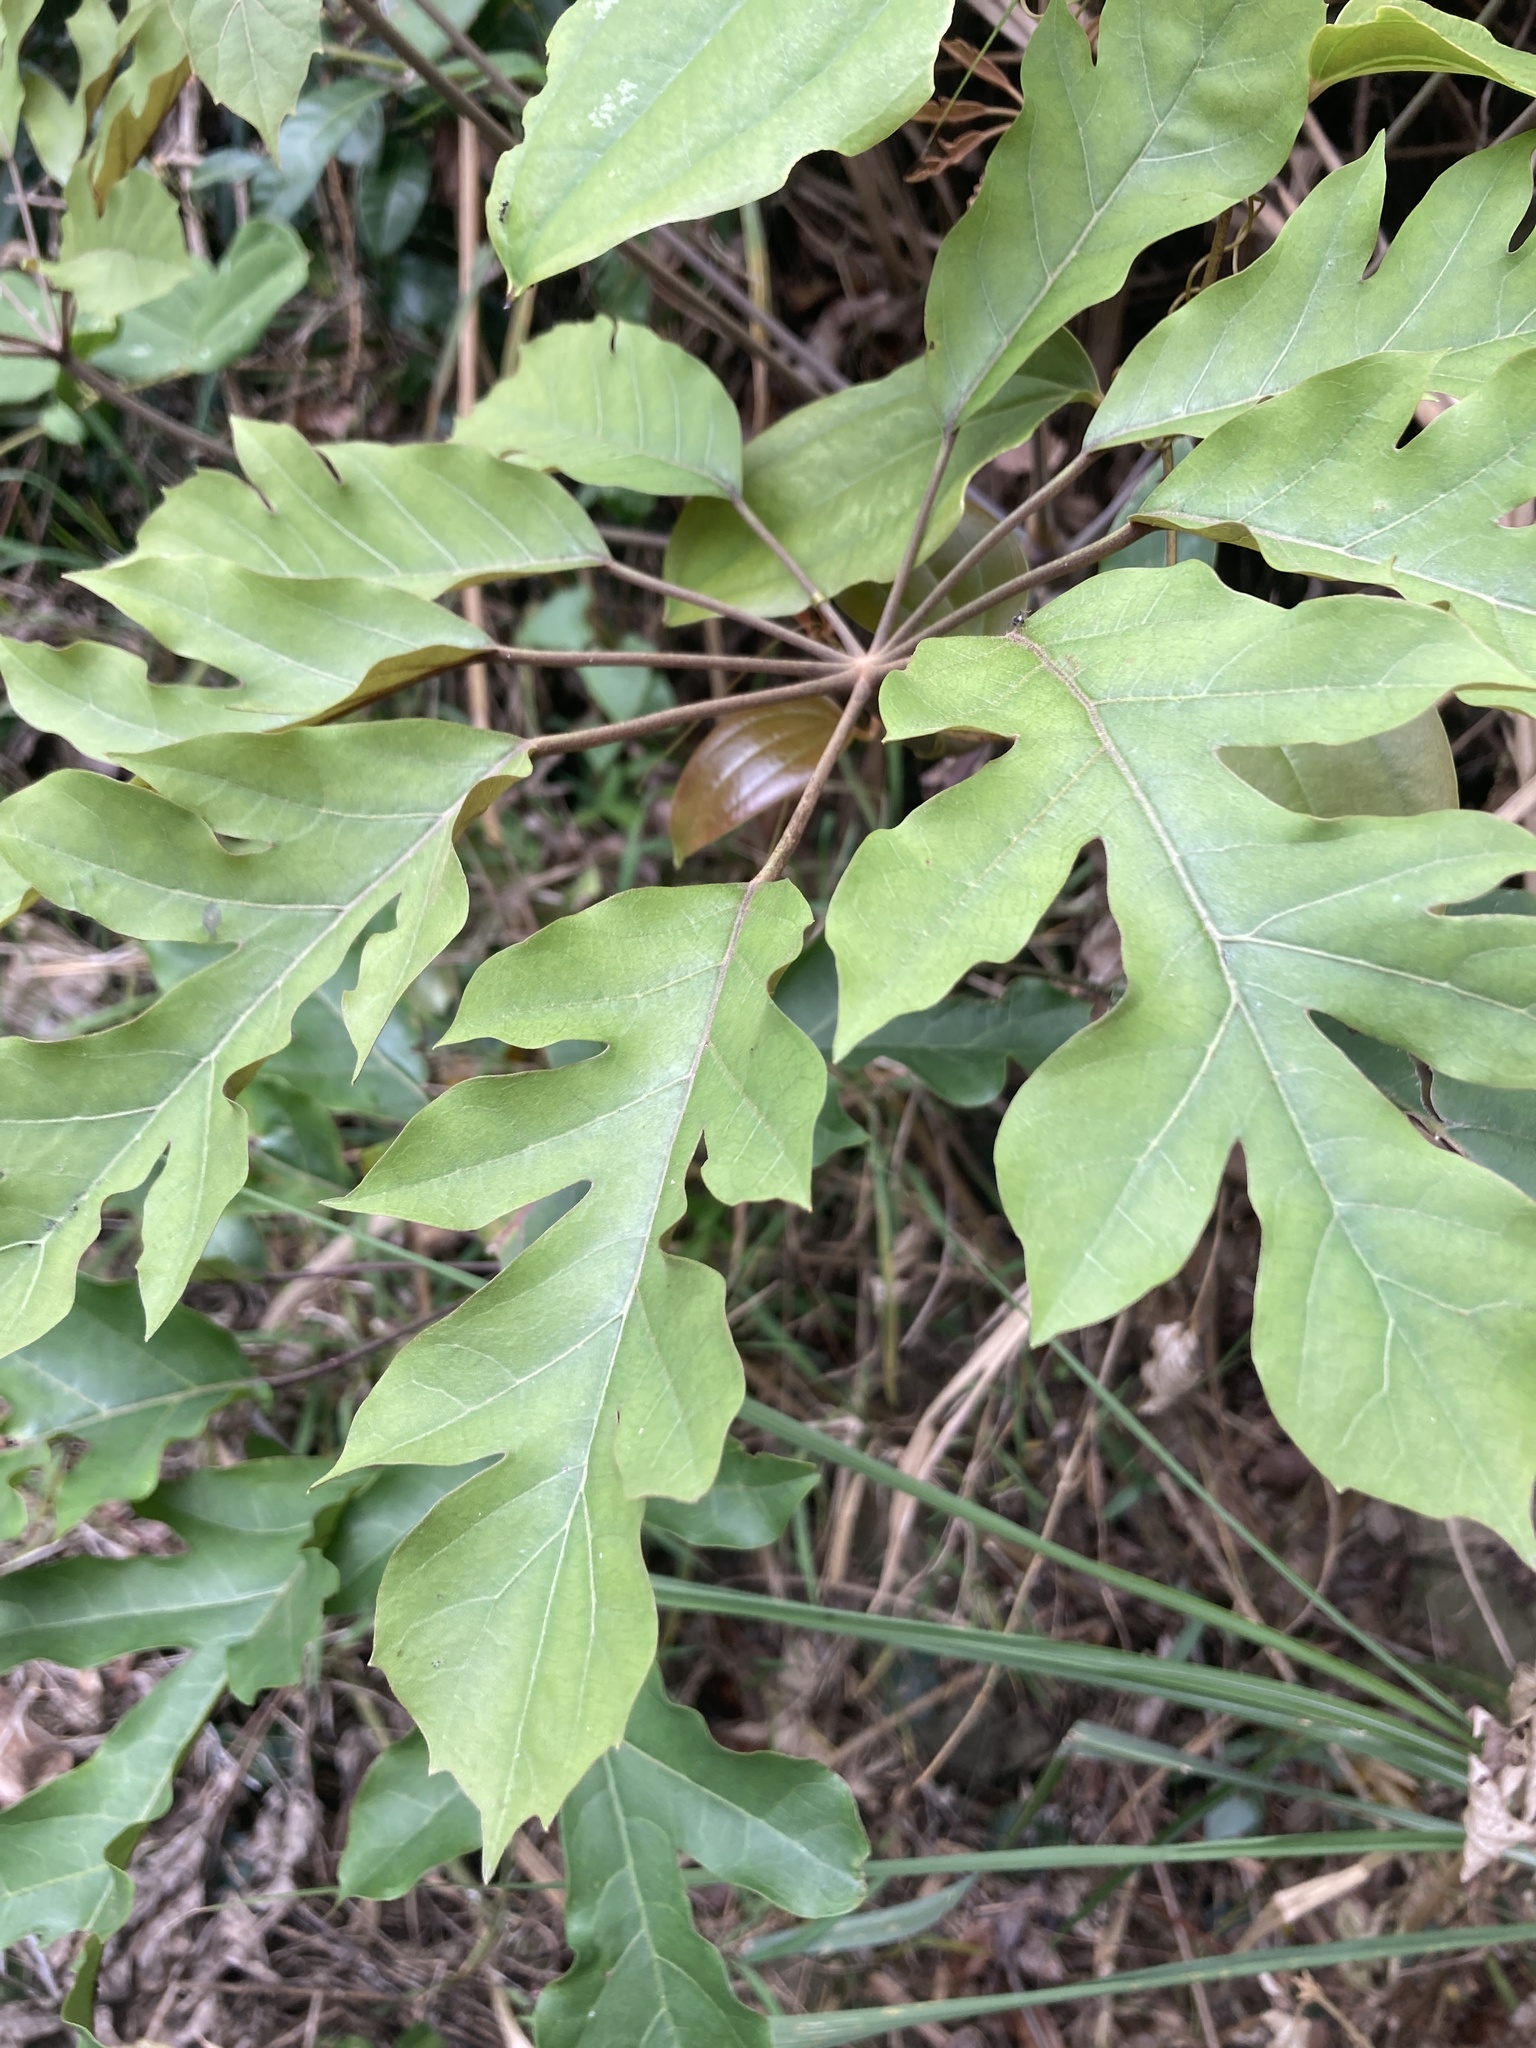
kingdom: Plantae
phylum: Tracheophyta
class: Magnoliopsida
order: Apiales
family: Araliaceae
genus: Heptapleurum
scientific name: Heptapleurum heptaphyllum
